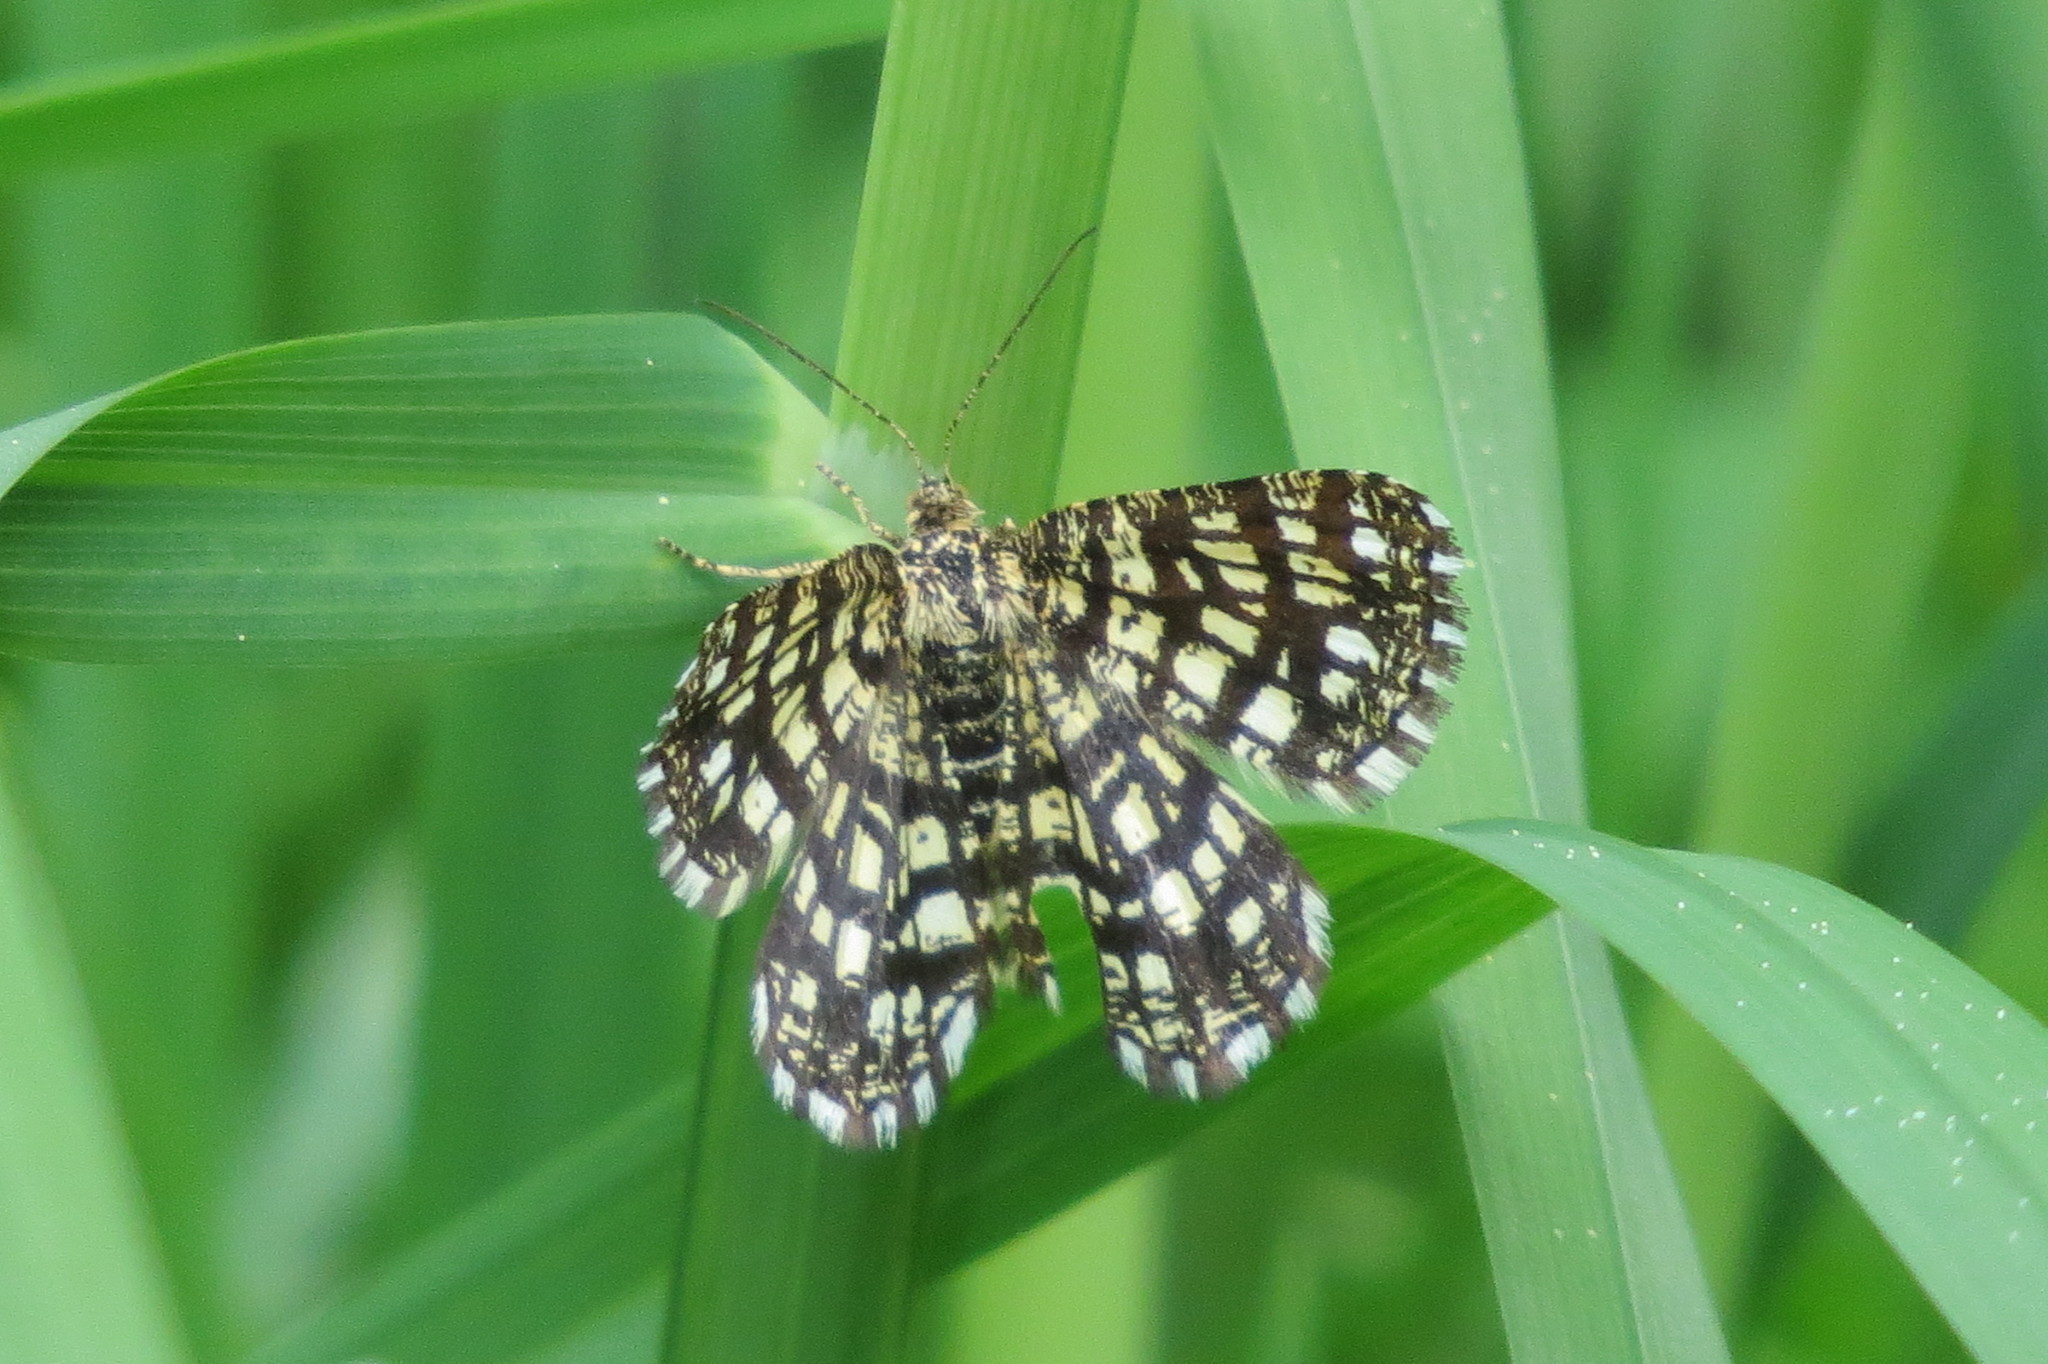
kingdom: Animalia
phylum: Arthropoda
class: Insecta
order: Lepidoptera
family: Geometridae
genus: Chiasmia
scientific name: Chiasmia clathrata
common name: Latticed heath
